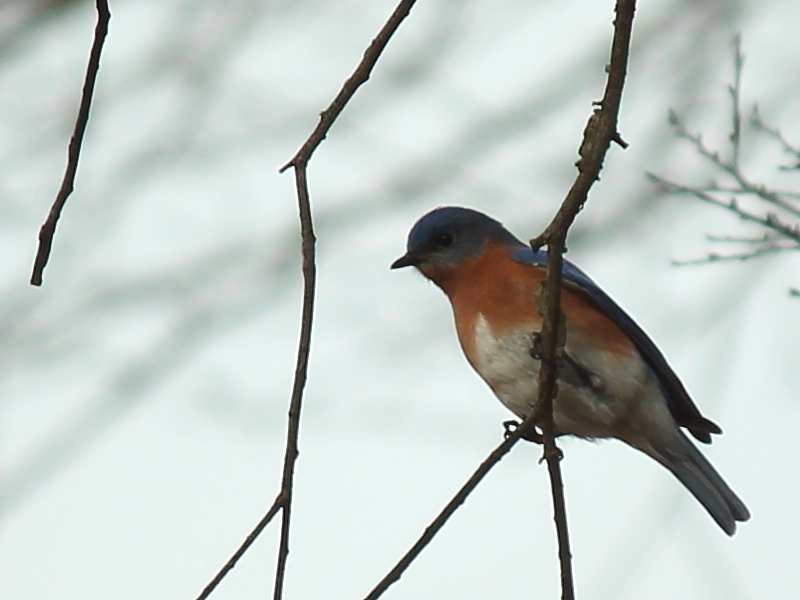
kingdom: Animalia
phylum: Chordata
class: Aves
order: Passeriformes
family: Turdidae
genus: Sialia
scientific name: Sialia sialis
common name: Eastern bluebird
